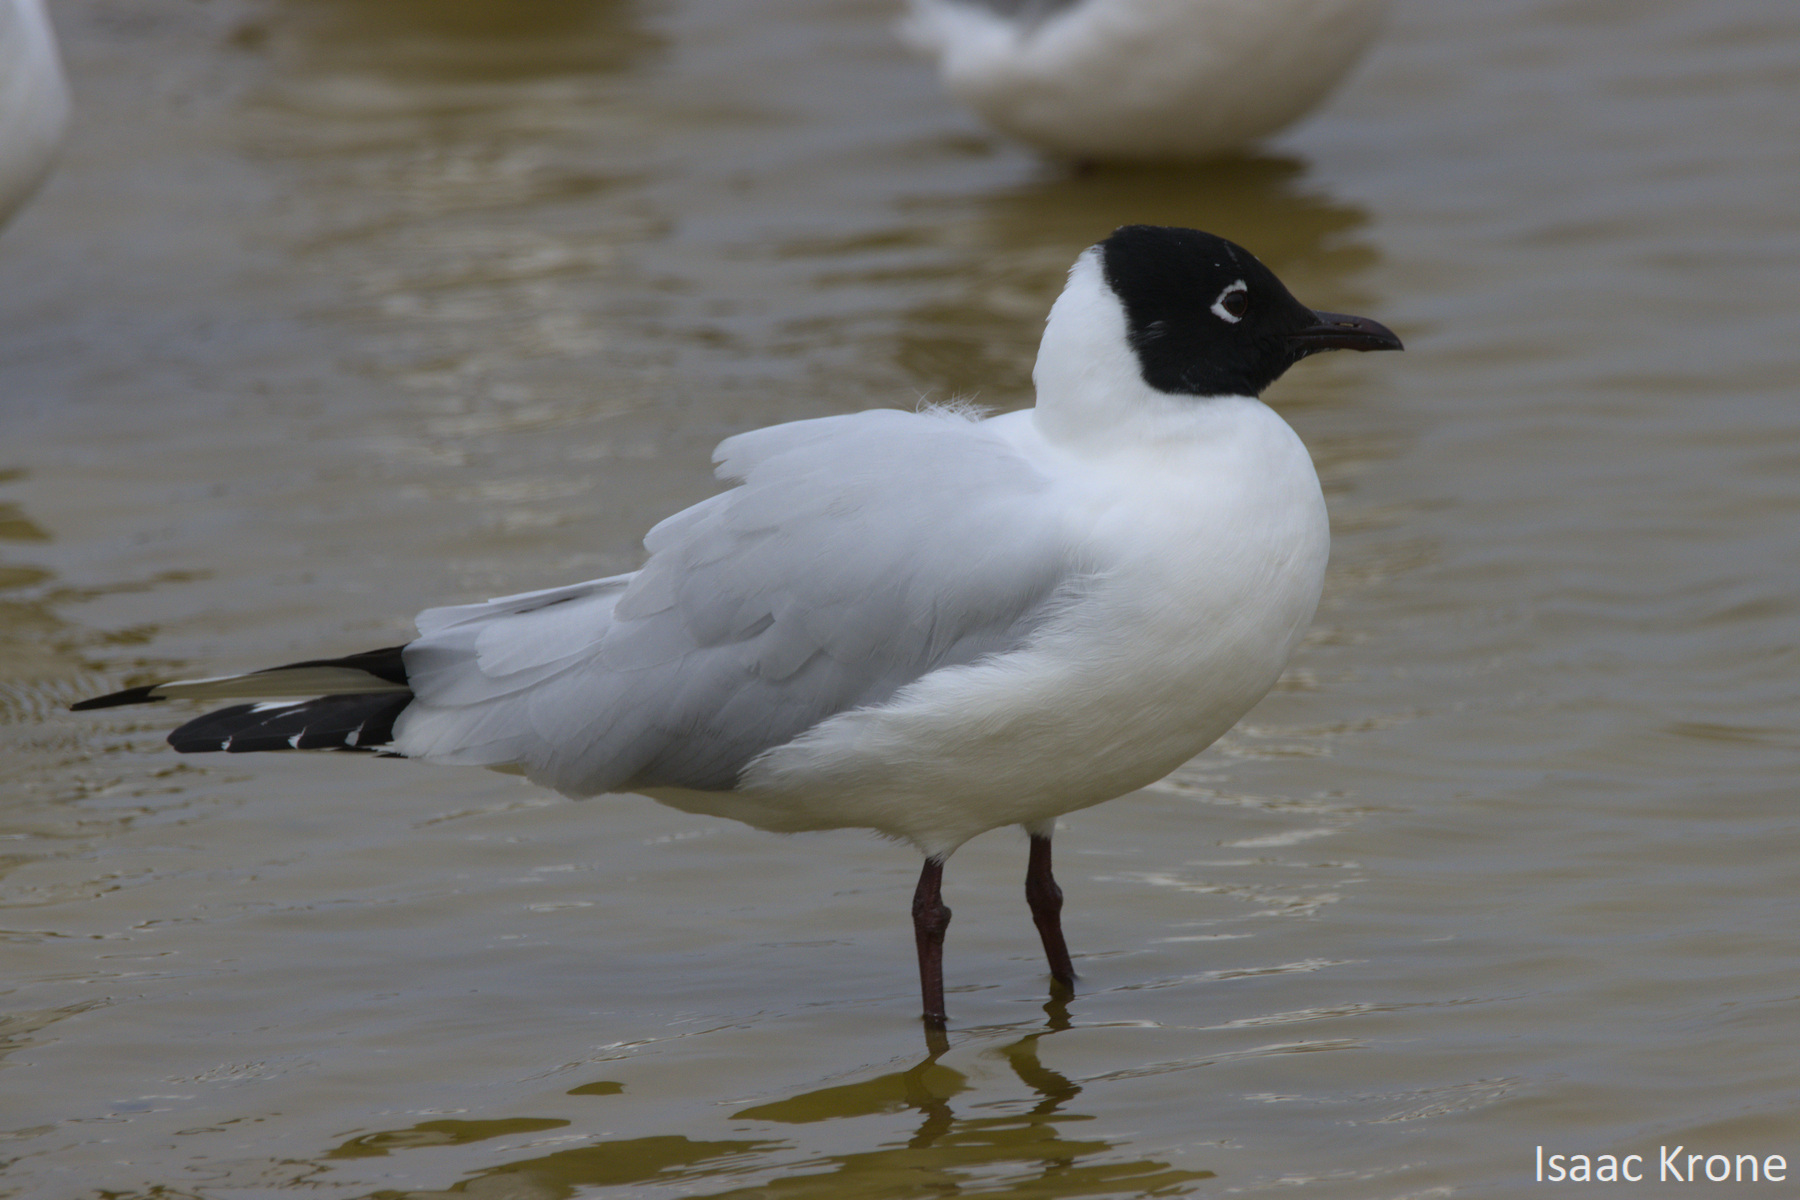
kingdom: Animalia
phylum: Chordata
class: Aves
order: Charadriiformes
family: Laridae
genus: Chroicocephalus
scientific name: Chroicocephalus serranus
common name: Andean gull
